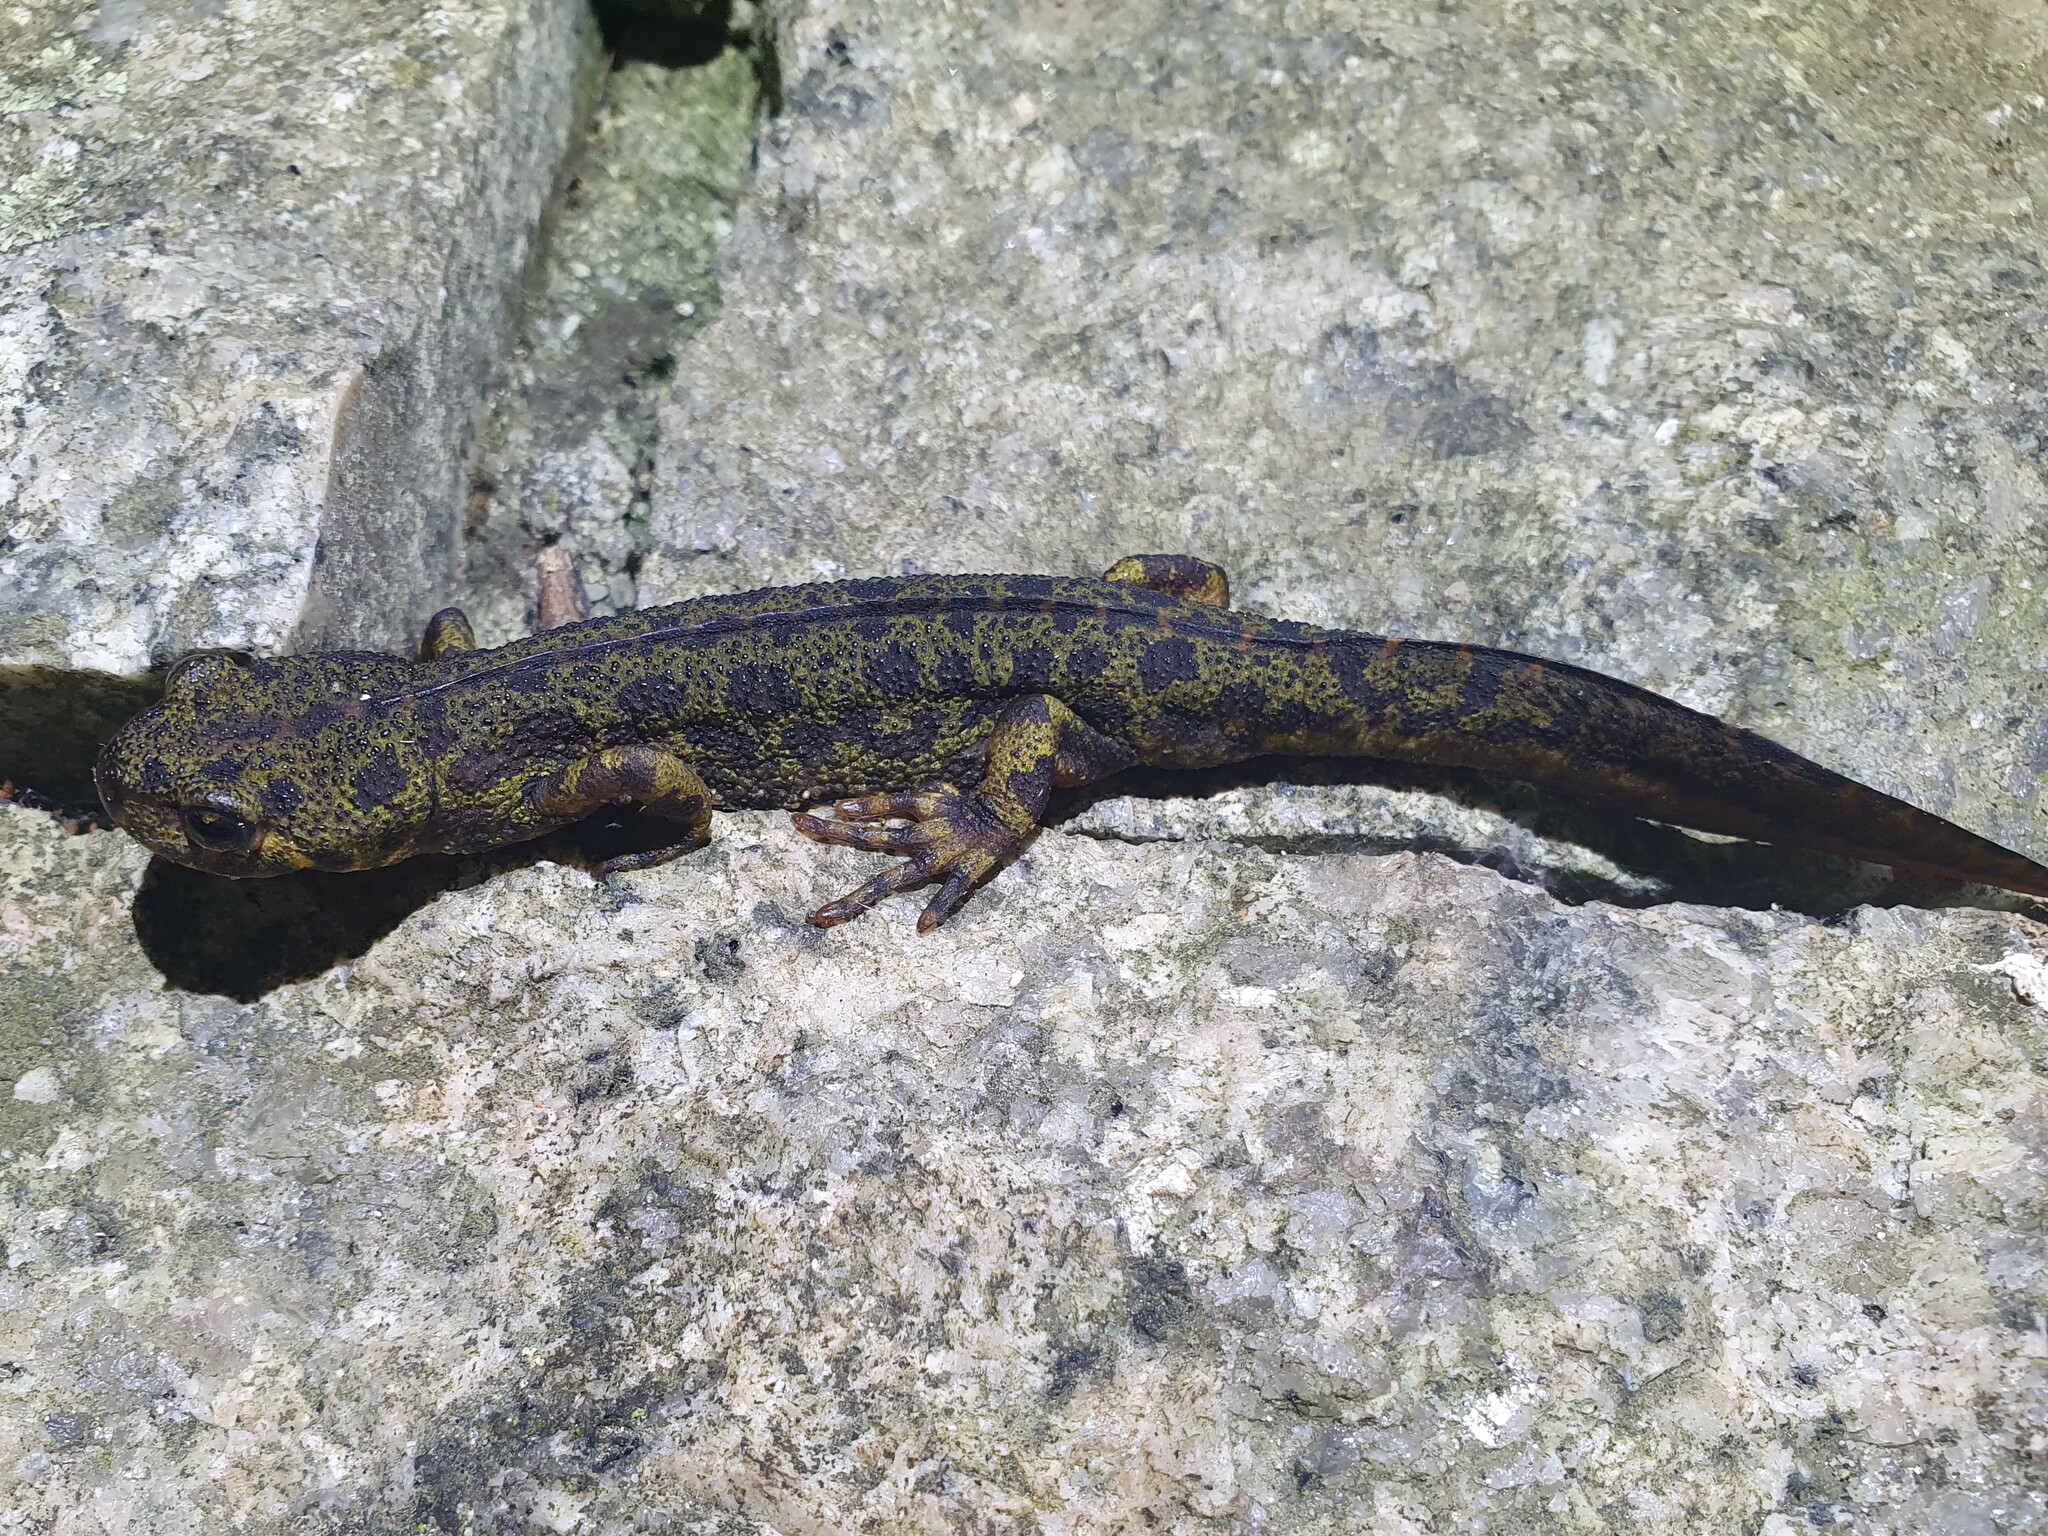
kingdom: Animalia
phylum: Chordata
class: Amphibia
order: Caudata
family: Salamandridae
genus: Triturus
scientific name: Triturus marmoratus
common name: Marbled newt
